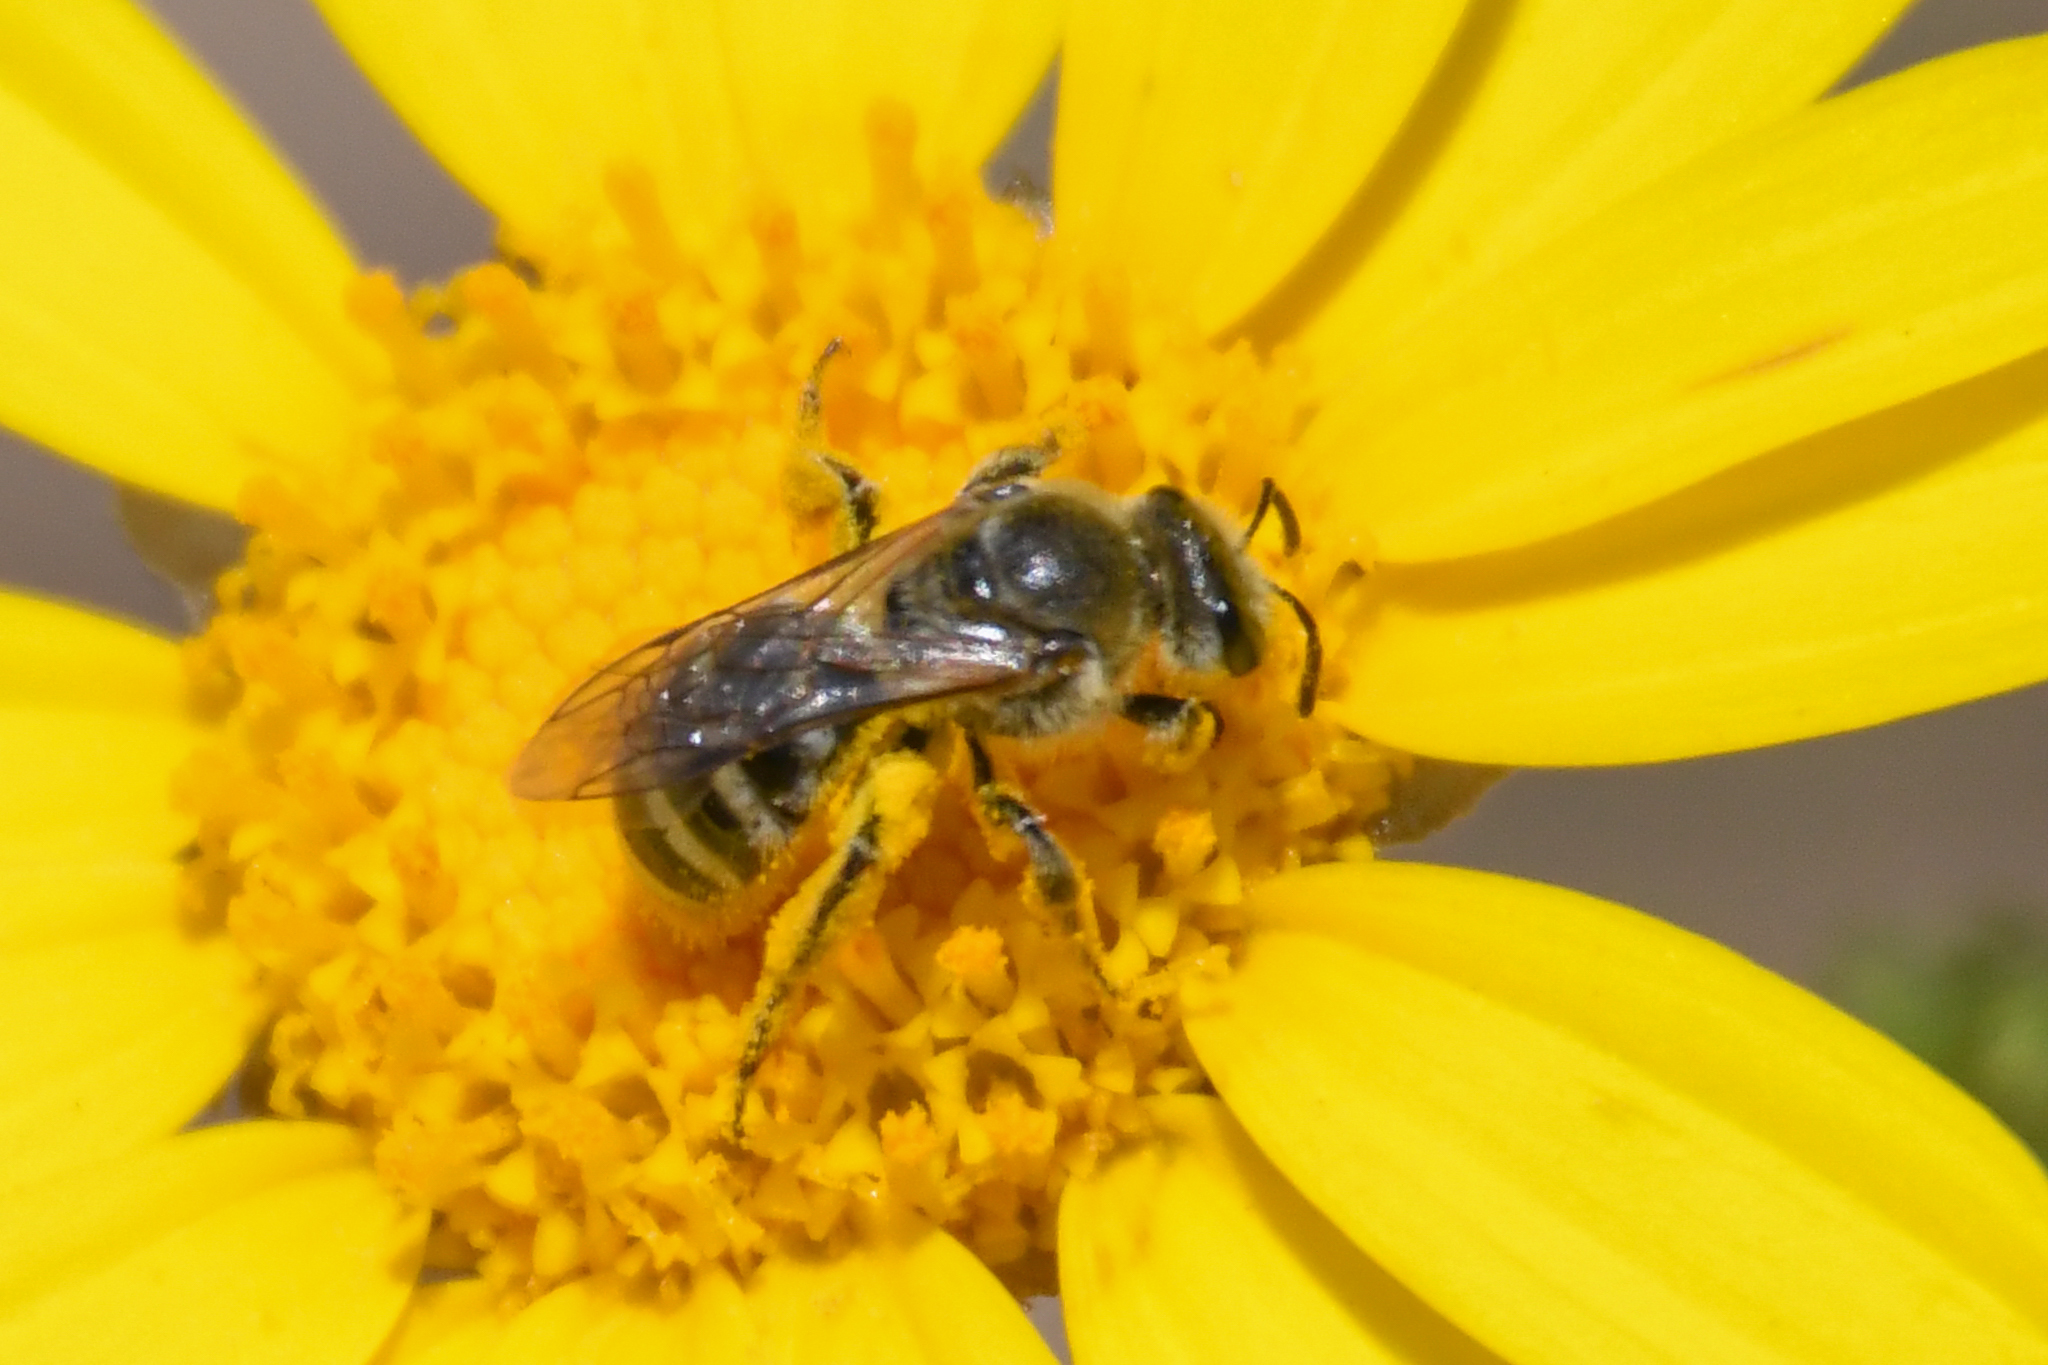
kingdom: Animalia
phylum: Arthropoda
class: Insecta
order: Hymenoptera
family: Halictidae
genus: Lasioglossum
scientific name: Lasioglossum sisymbrii
